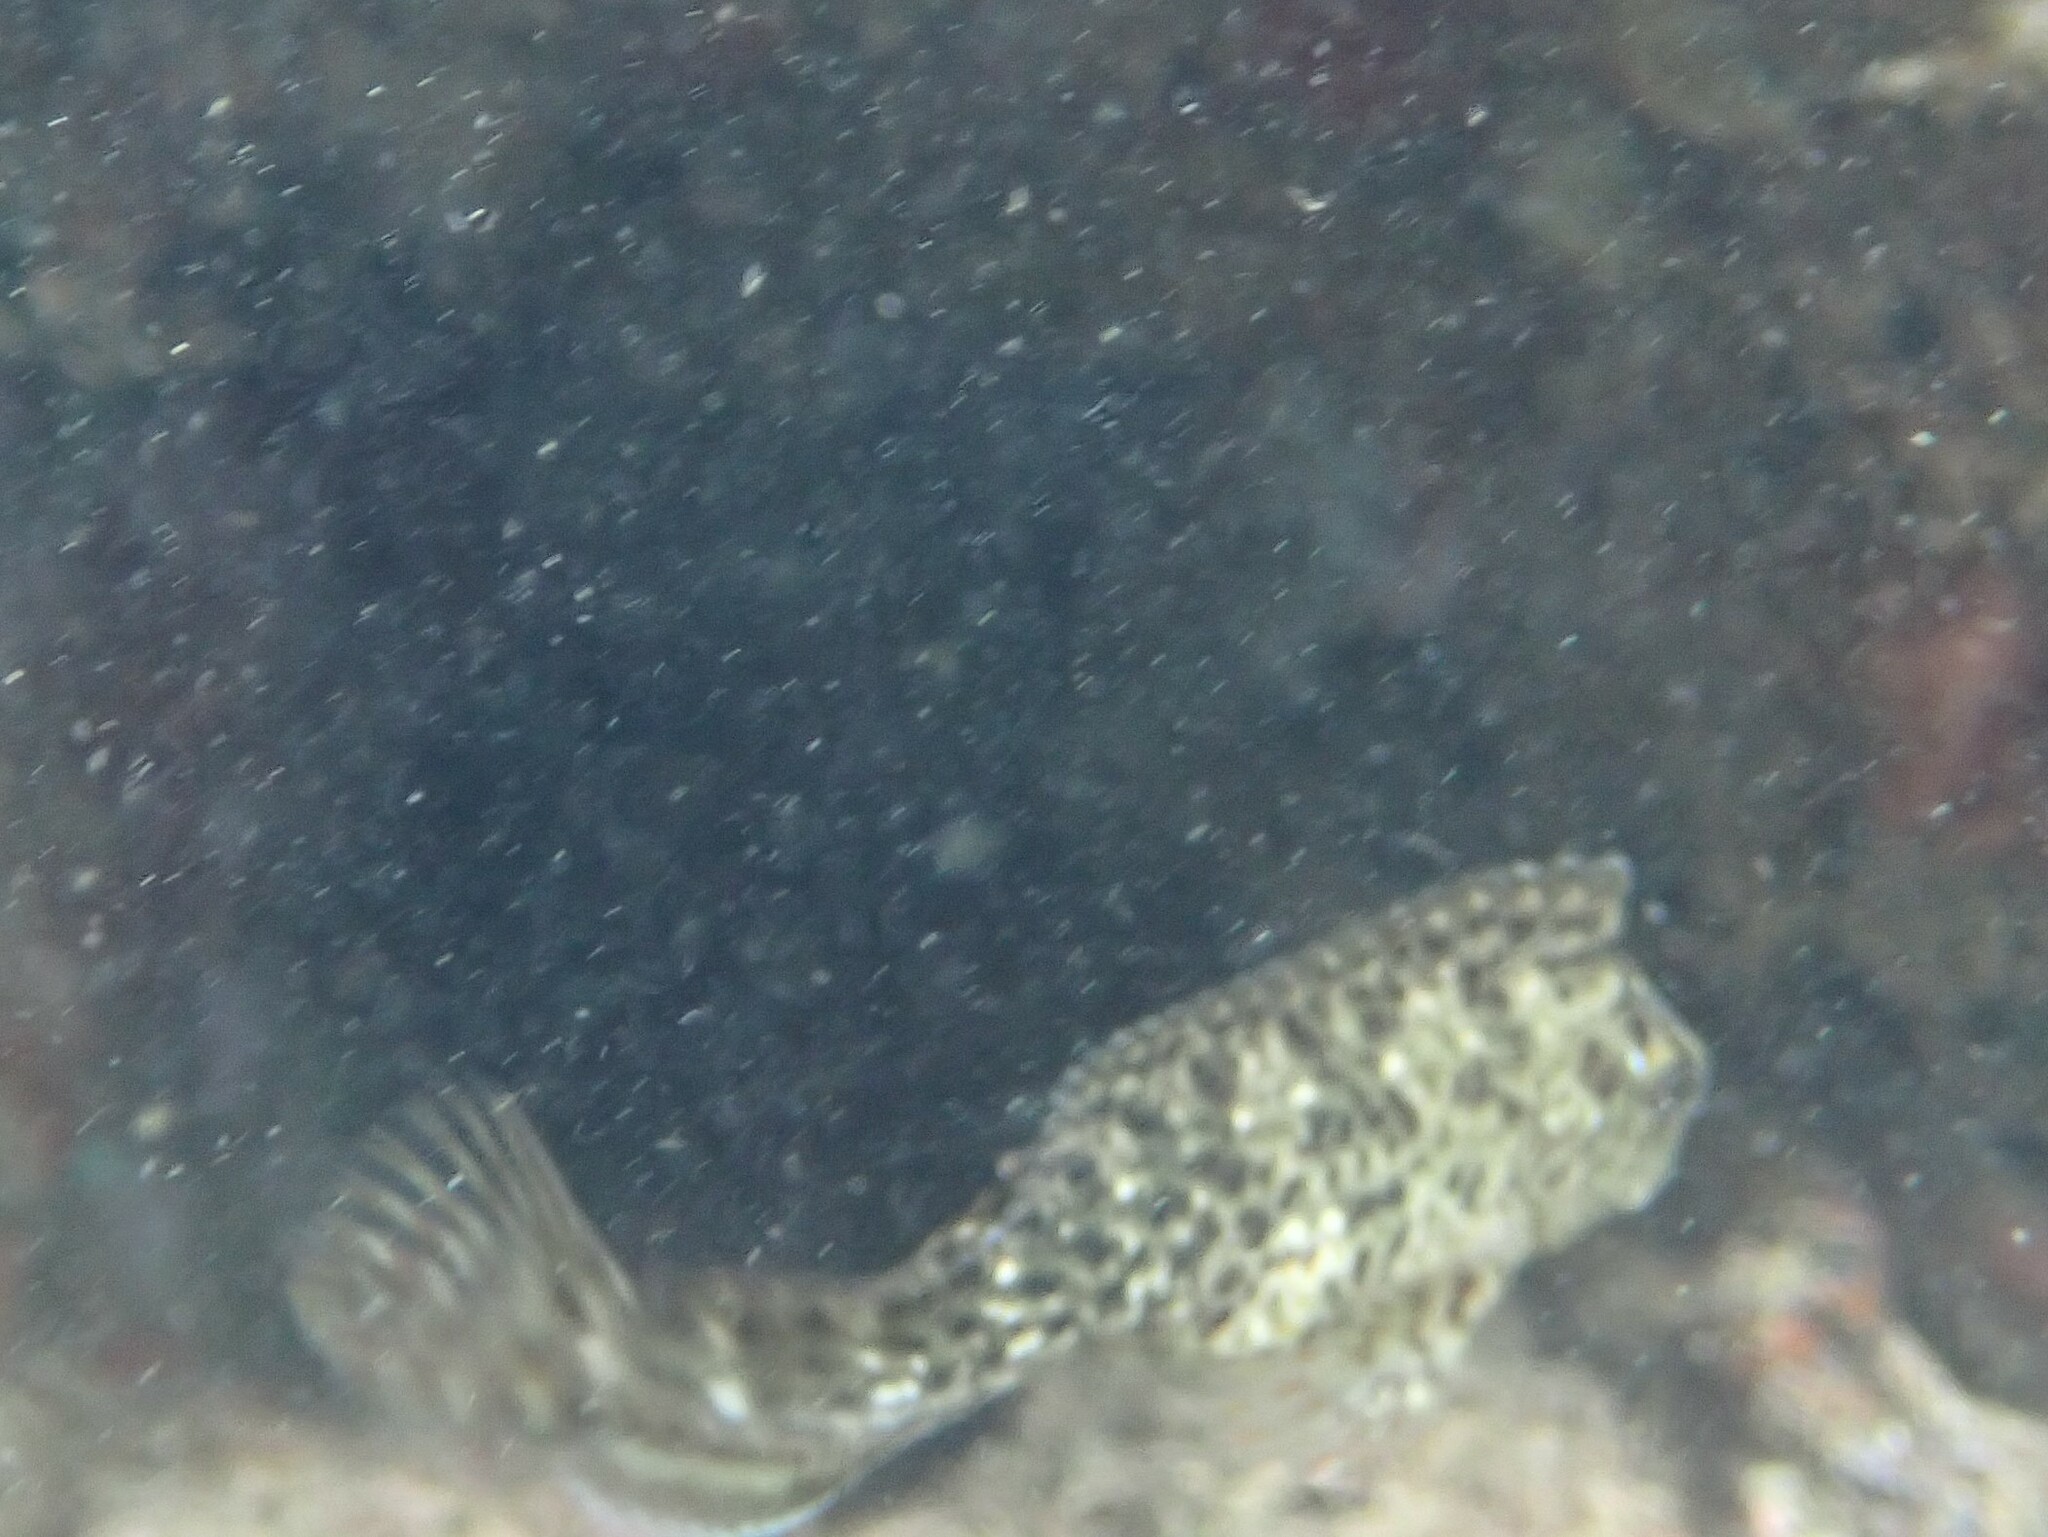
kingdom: Animalia
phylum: Chordata
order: Perciformes
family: Blenniidae
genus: Parablennius
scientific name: Parablennius sanguinolentus
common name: Black sea blenny
